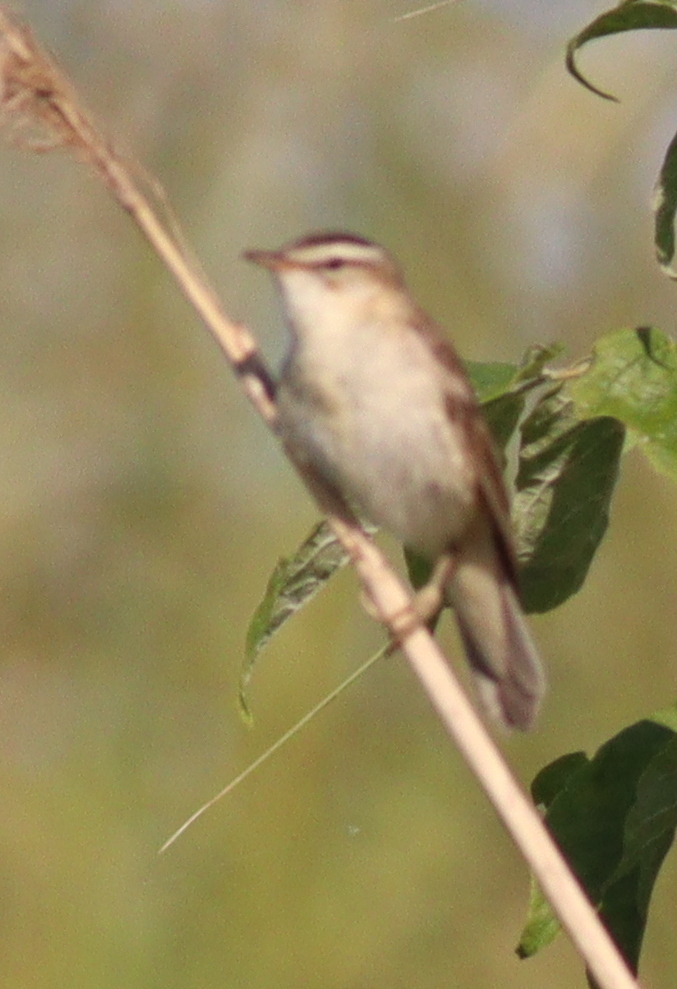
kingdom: Animalia
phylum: Chordata
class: Aves
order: Passeriformes
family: Acrocephalidae
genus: Acrocephalus
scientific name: Acrocephalus schoenobaenus
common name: Sedge warbler
